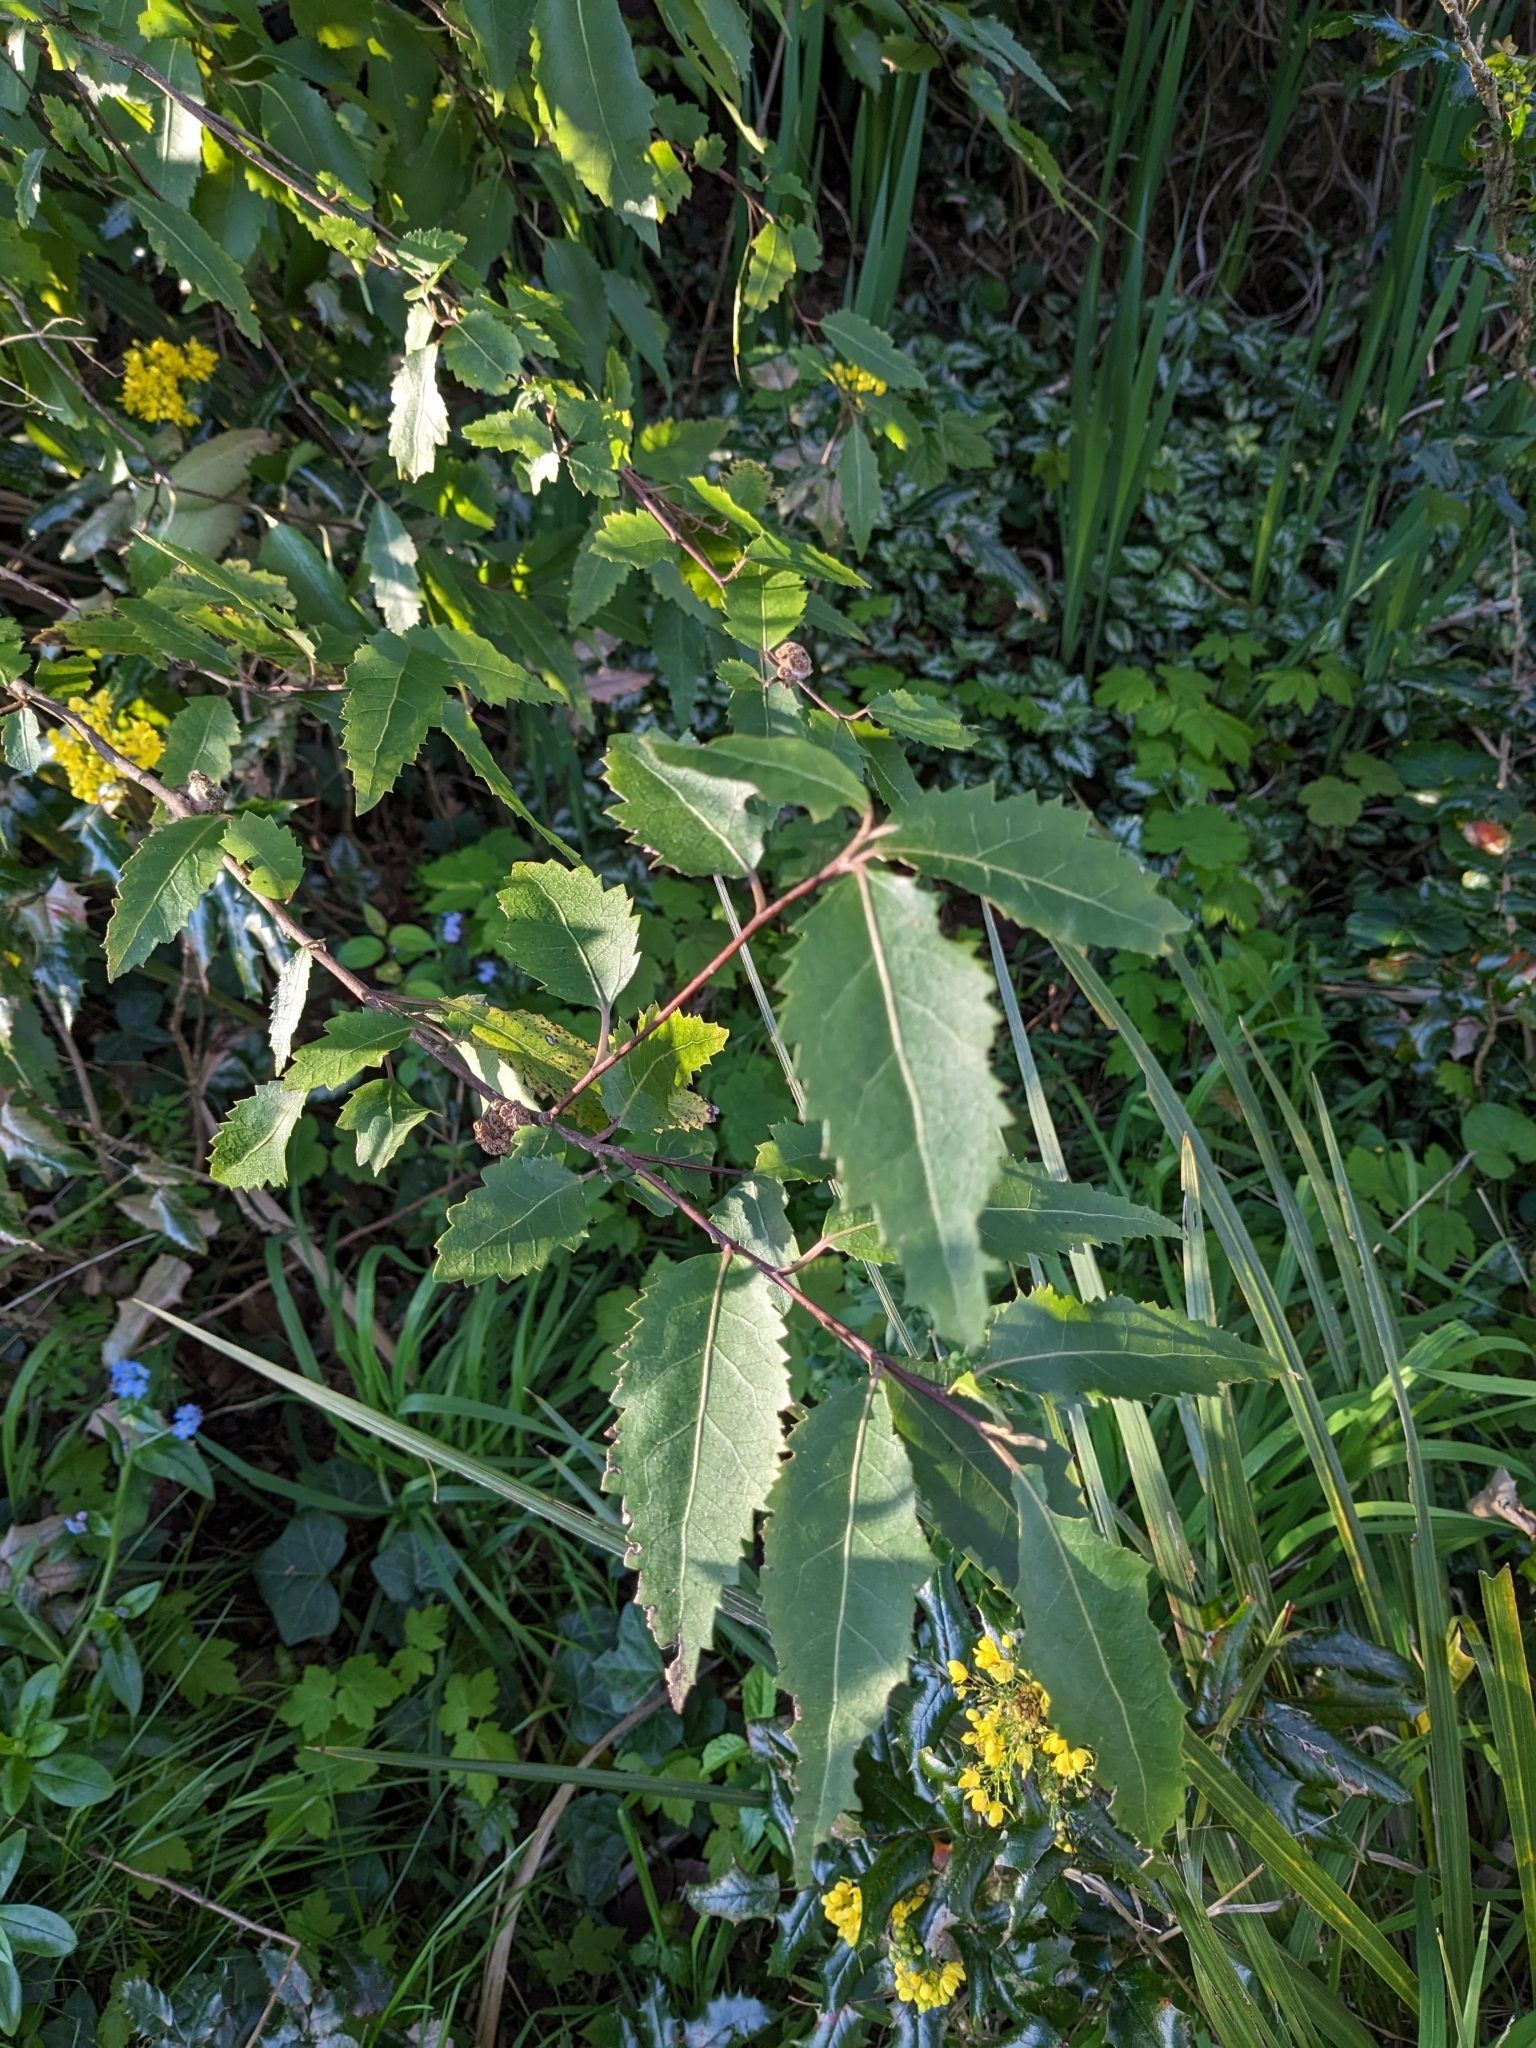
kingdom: Plantae
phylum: Tracheophyta
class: Magnoliopsida
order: Malvales
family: Malvaceae
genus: Hoheria
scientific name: Hoheria sexstylosa
